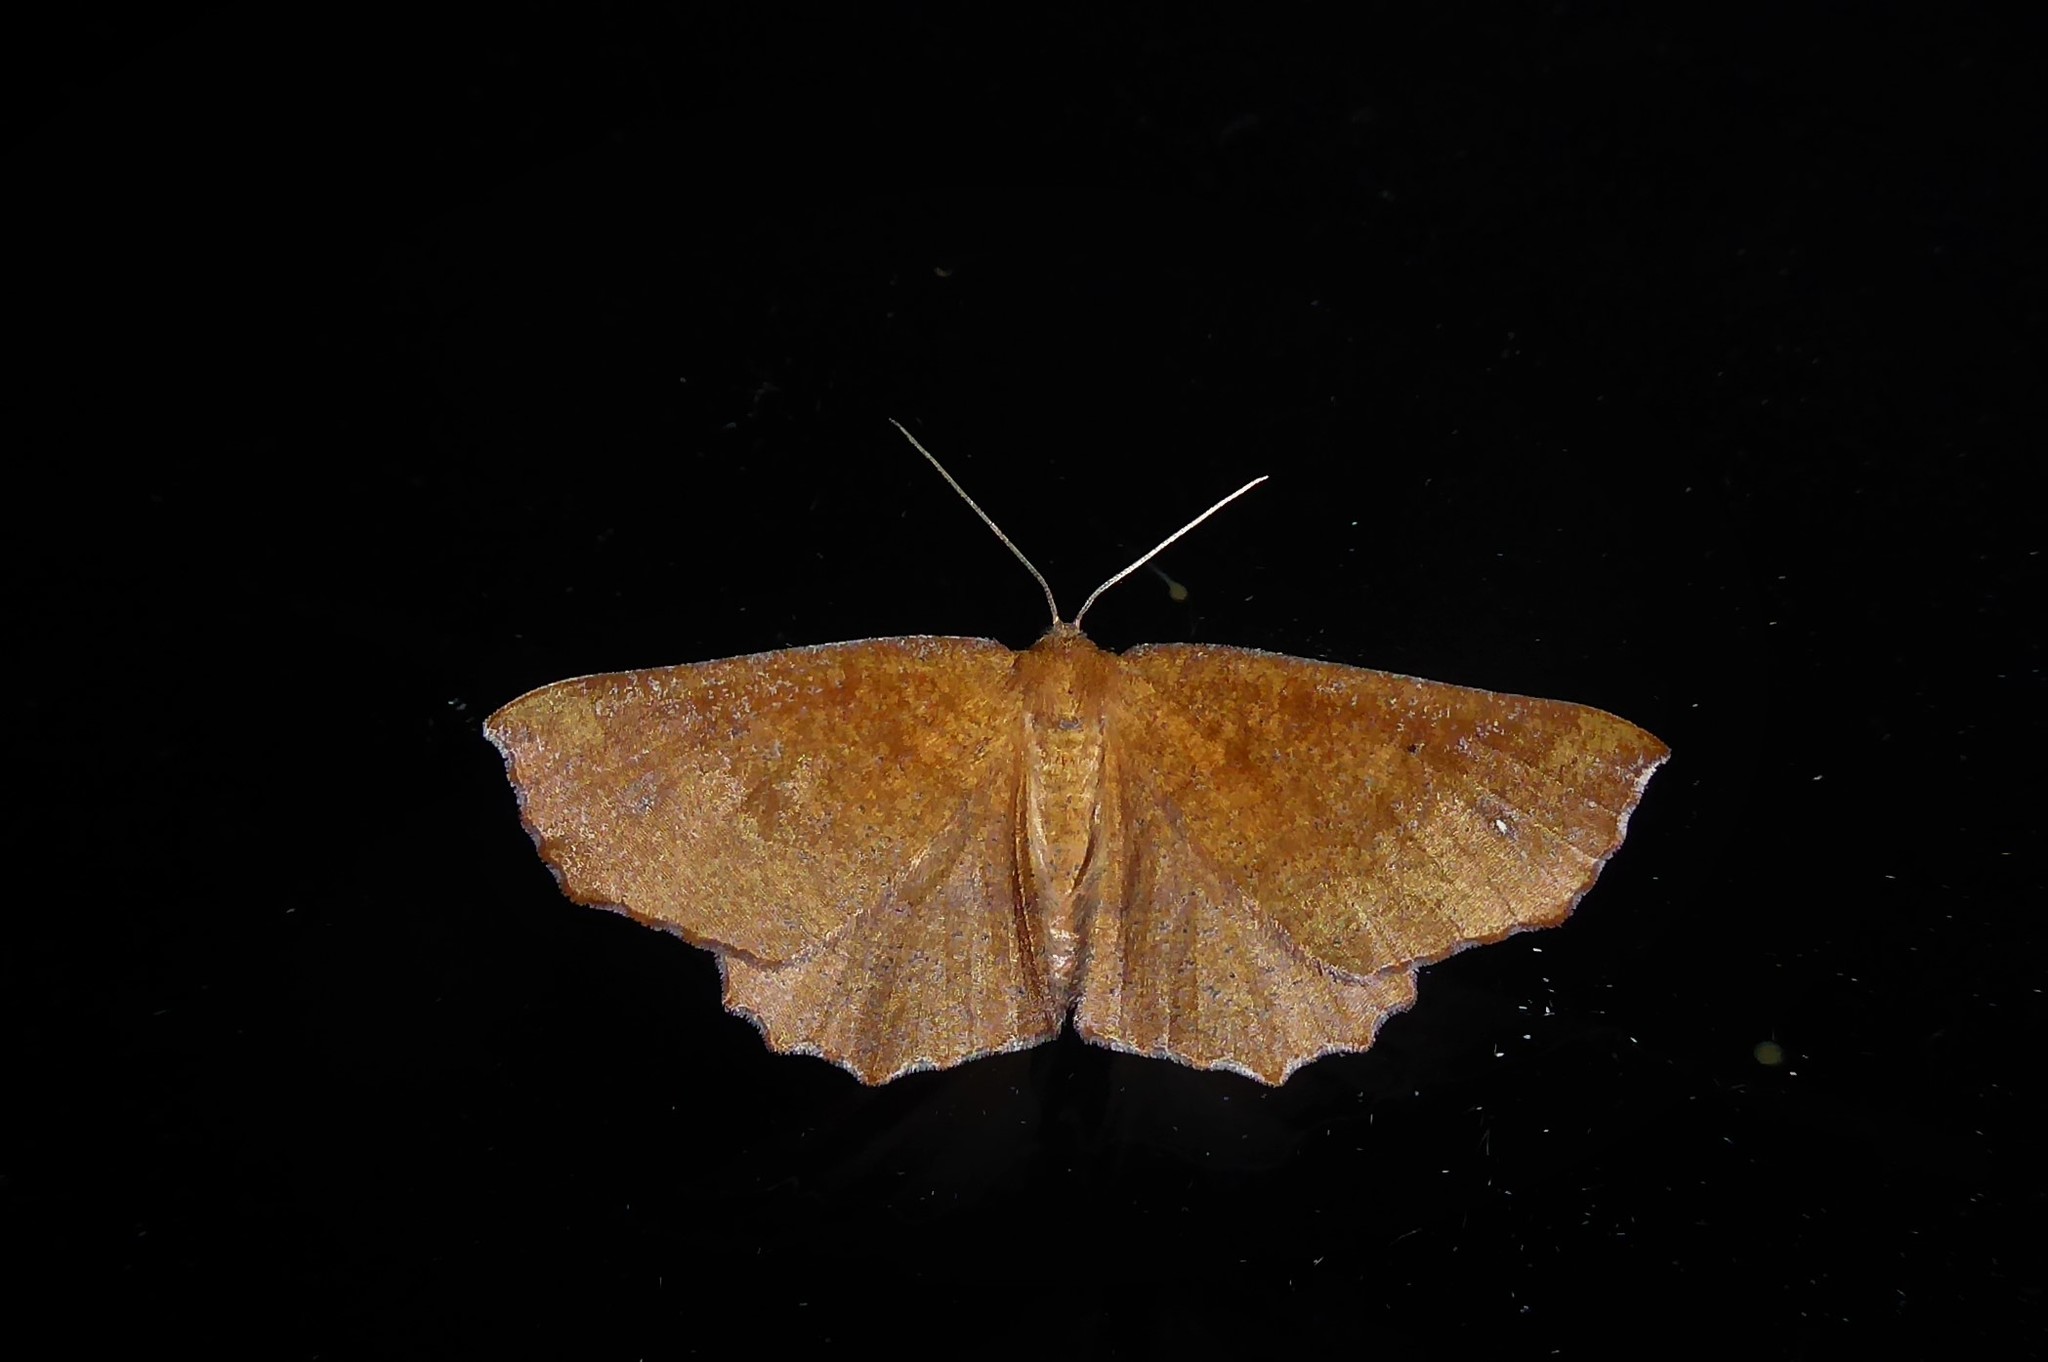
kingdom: Animalia
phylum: Arthropoda
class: Insecta
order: Lepidoptera
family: Geometridae
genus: Xyridacma
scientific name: Xyridacma ustaria
